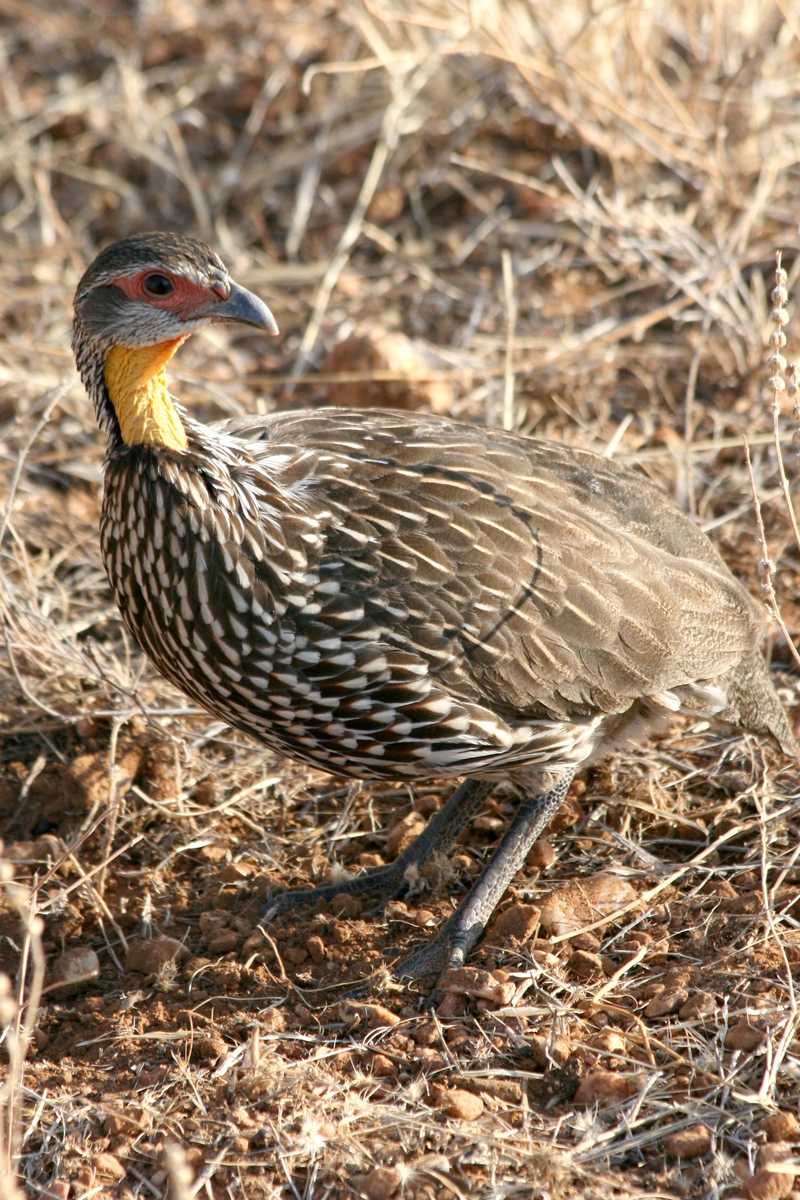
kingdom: Animalia
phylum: Chordata
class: Aves
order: Galliformes
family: Phasianidae
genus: Pternistis
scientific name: Pternistis leucoscepus
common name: Yellow-necked spurfowl
